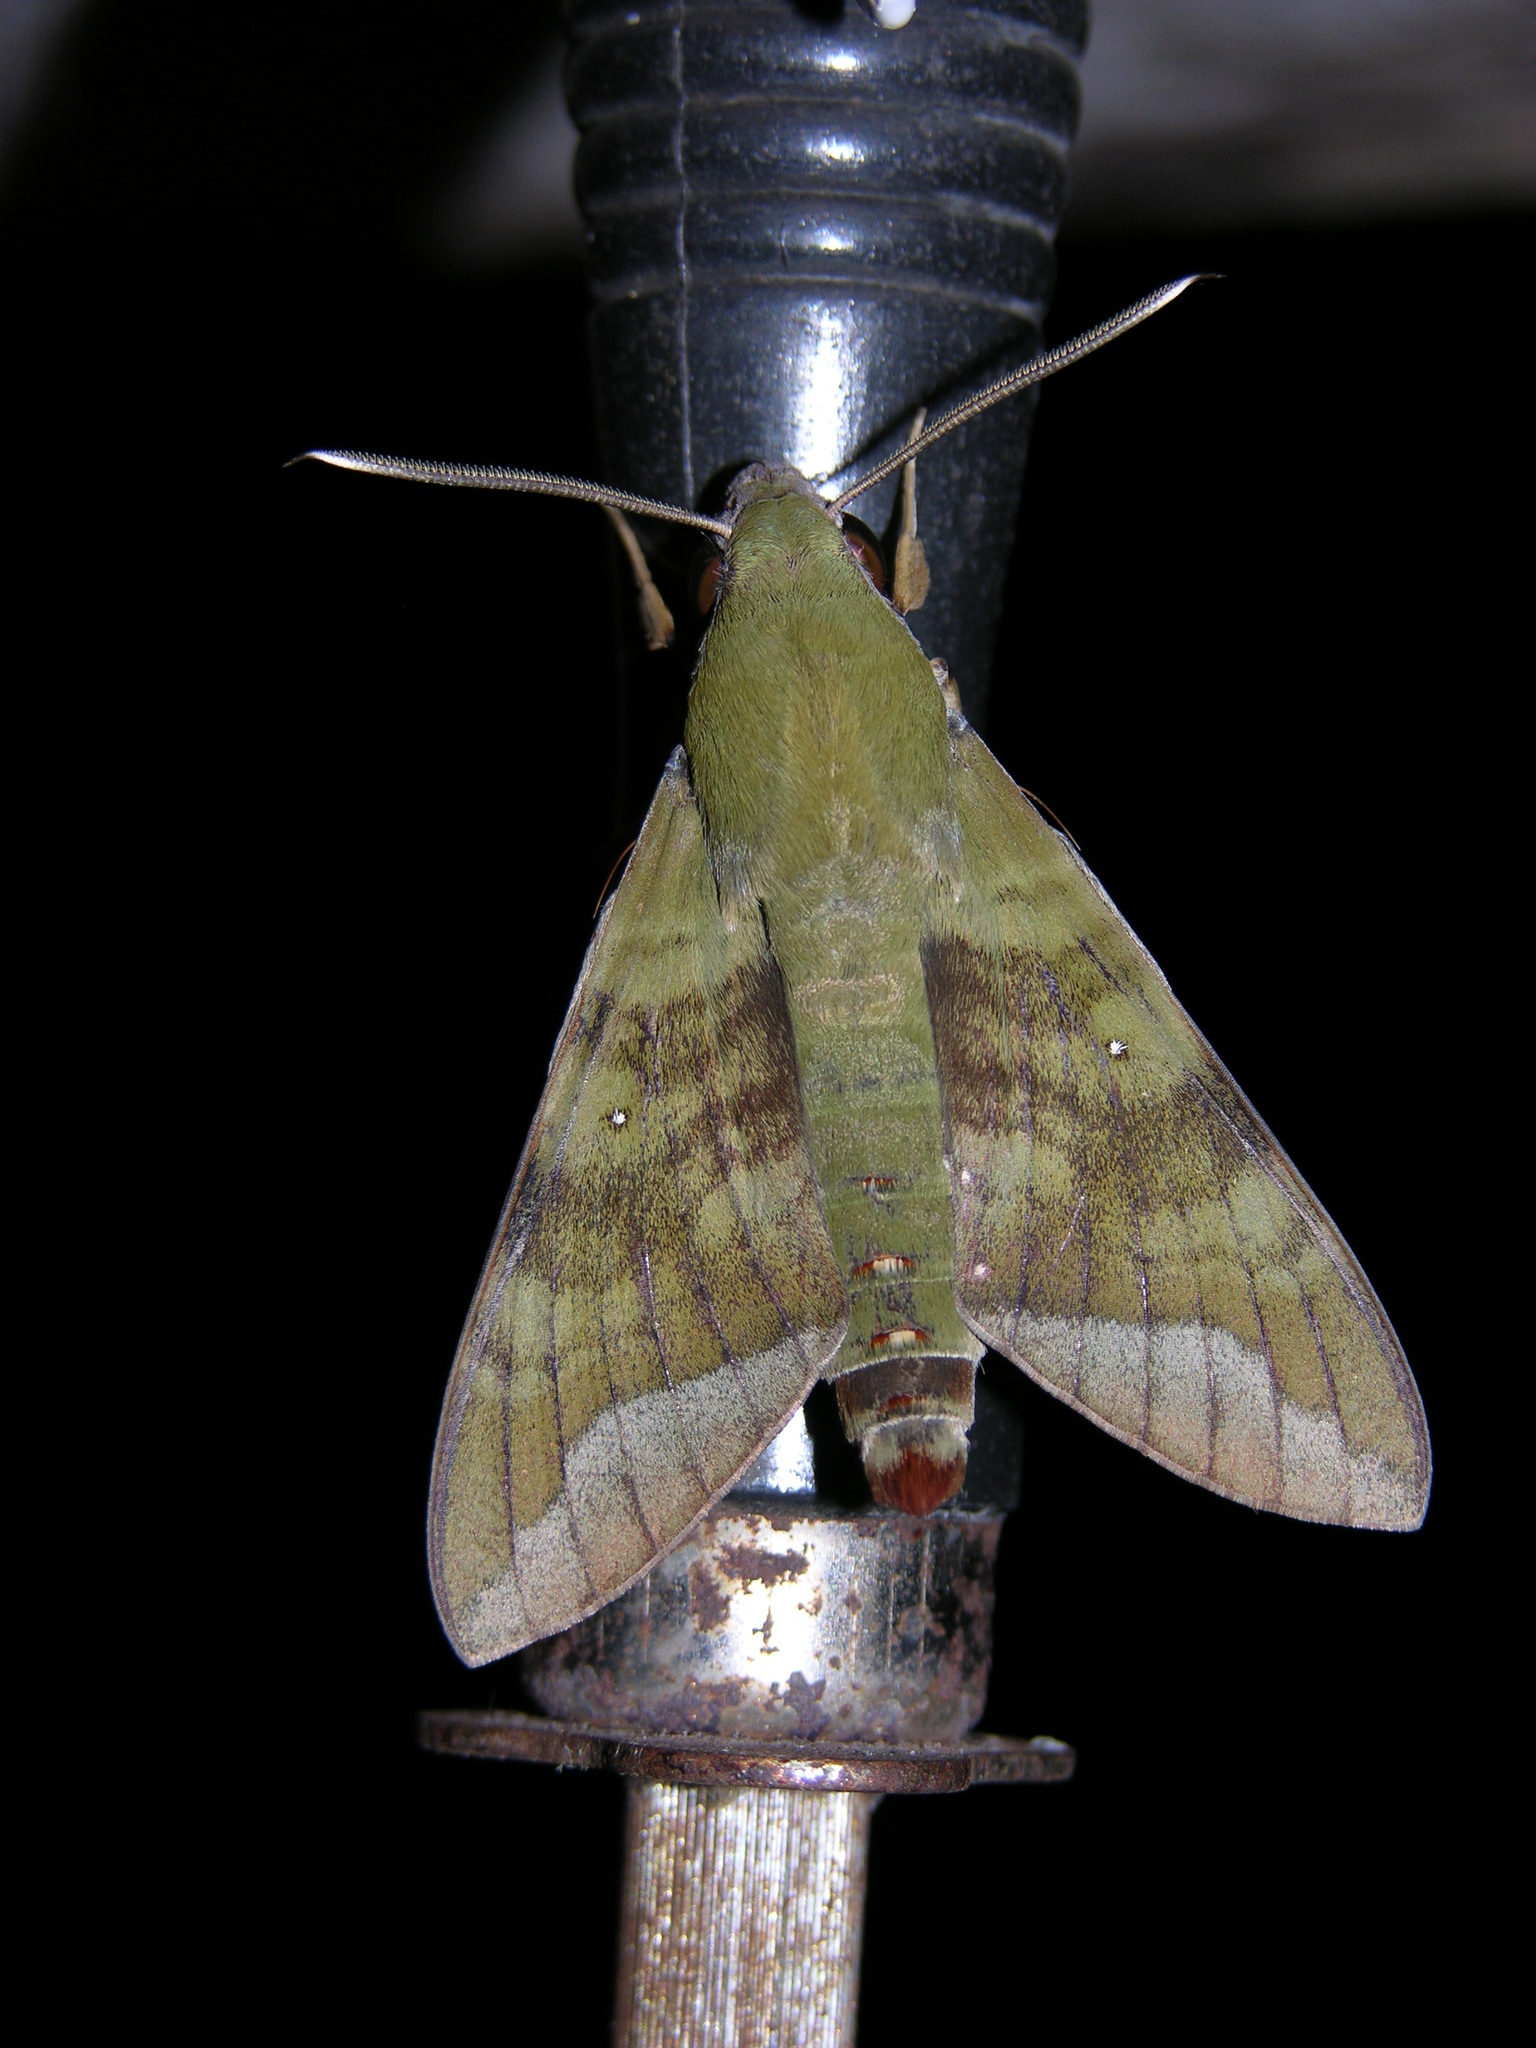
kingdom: Animalia
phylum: Arthropoda
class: Insecta
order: Lepidoptera
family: Sphingidae
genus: Nephele
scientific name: Nephele comma
